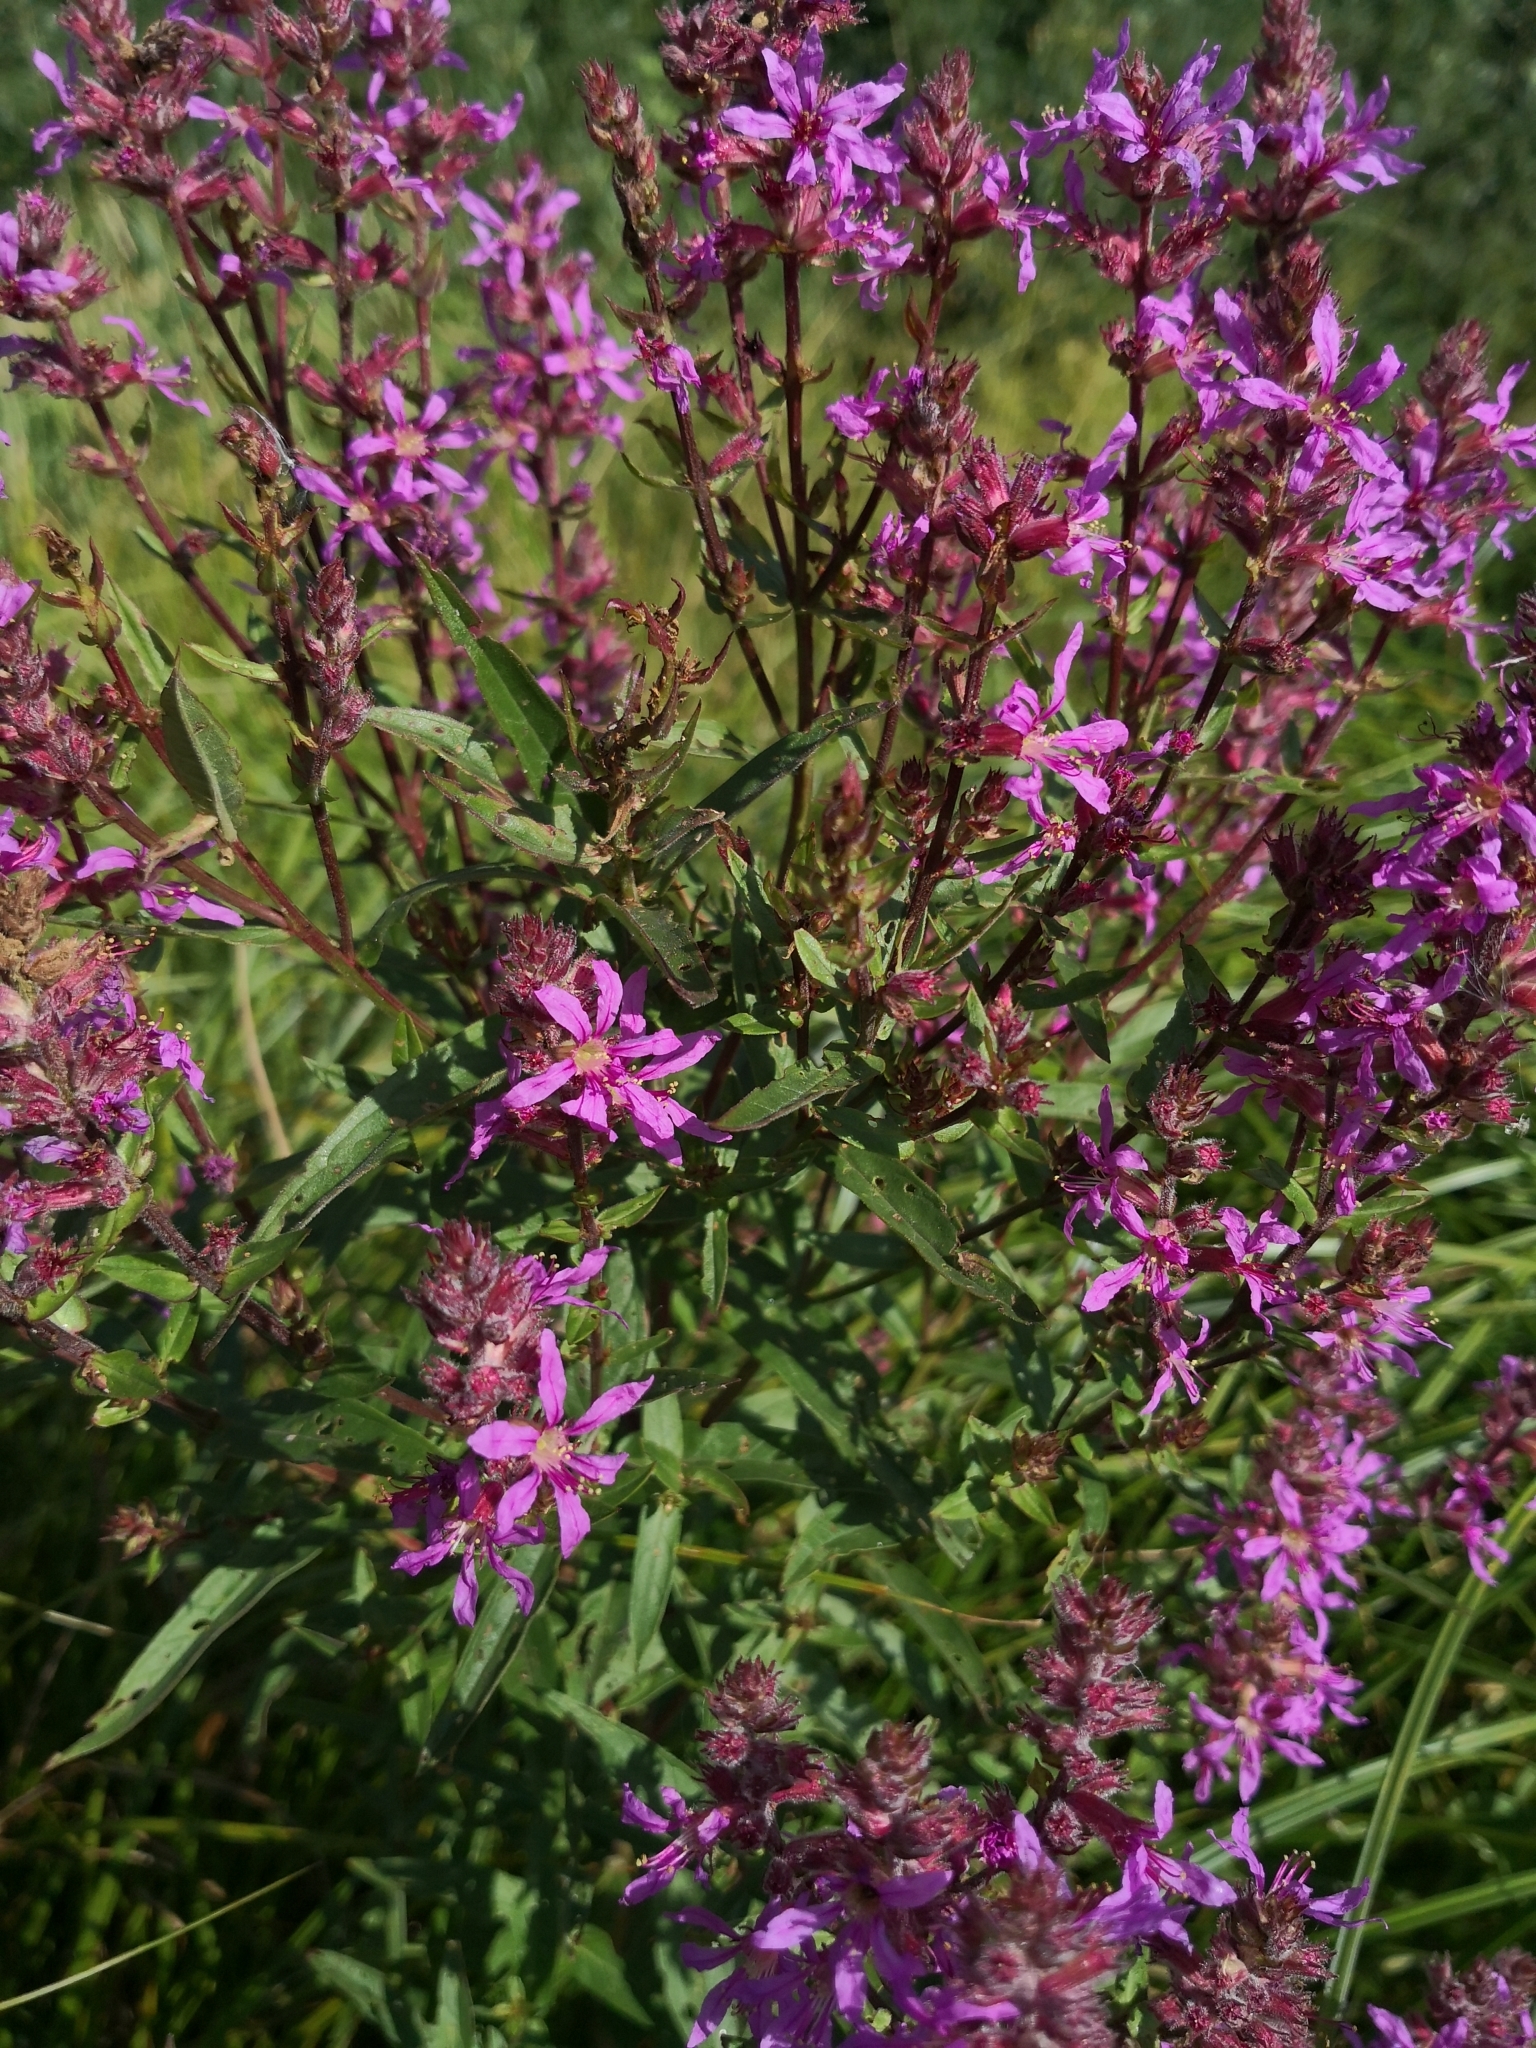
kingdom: Plantae
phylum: Tracheophyta
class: Magnoliopsida
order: Myrtales
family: Lythraceae
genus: Lythrum
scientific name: Lythrum salicaria
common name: Purple loosestrife
